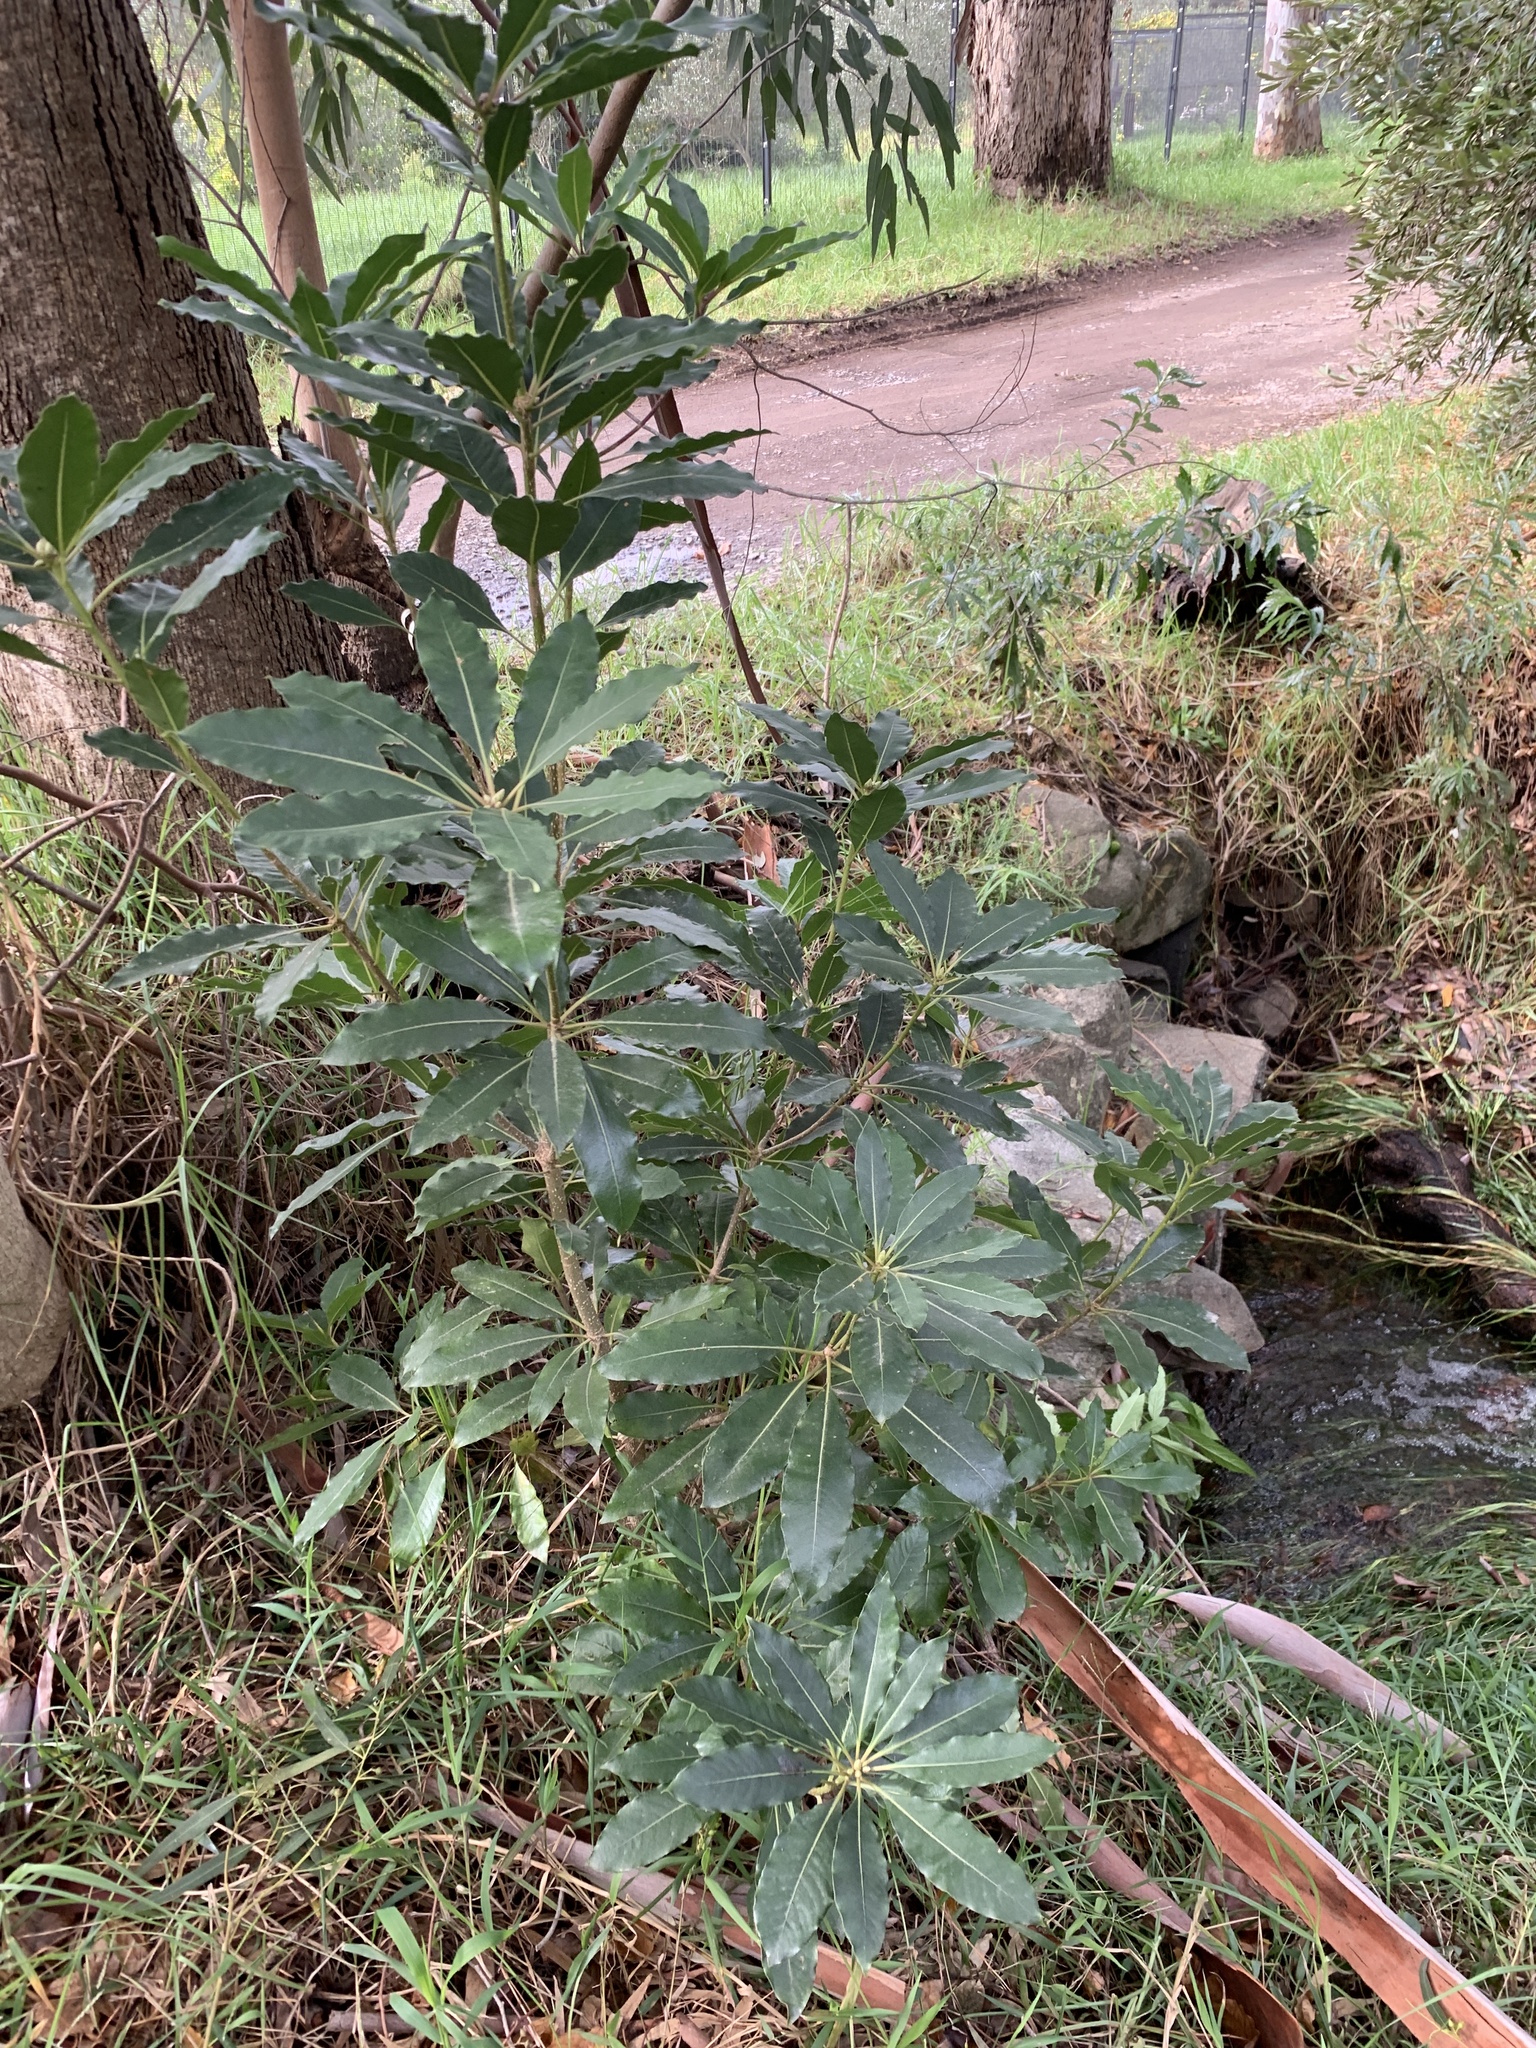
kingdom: Plantae
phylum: Tracheophyta
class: Magnoliopsida
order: Apiales
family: Pittosporaceae
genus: Pittosporum
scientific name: Pittosporum undulatum
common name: Australian cheesewood
